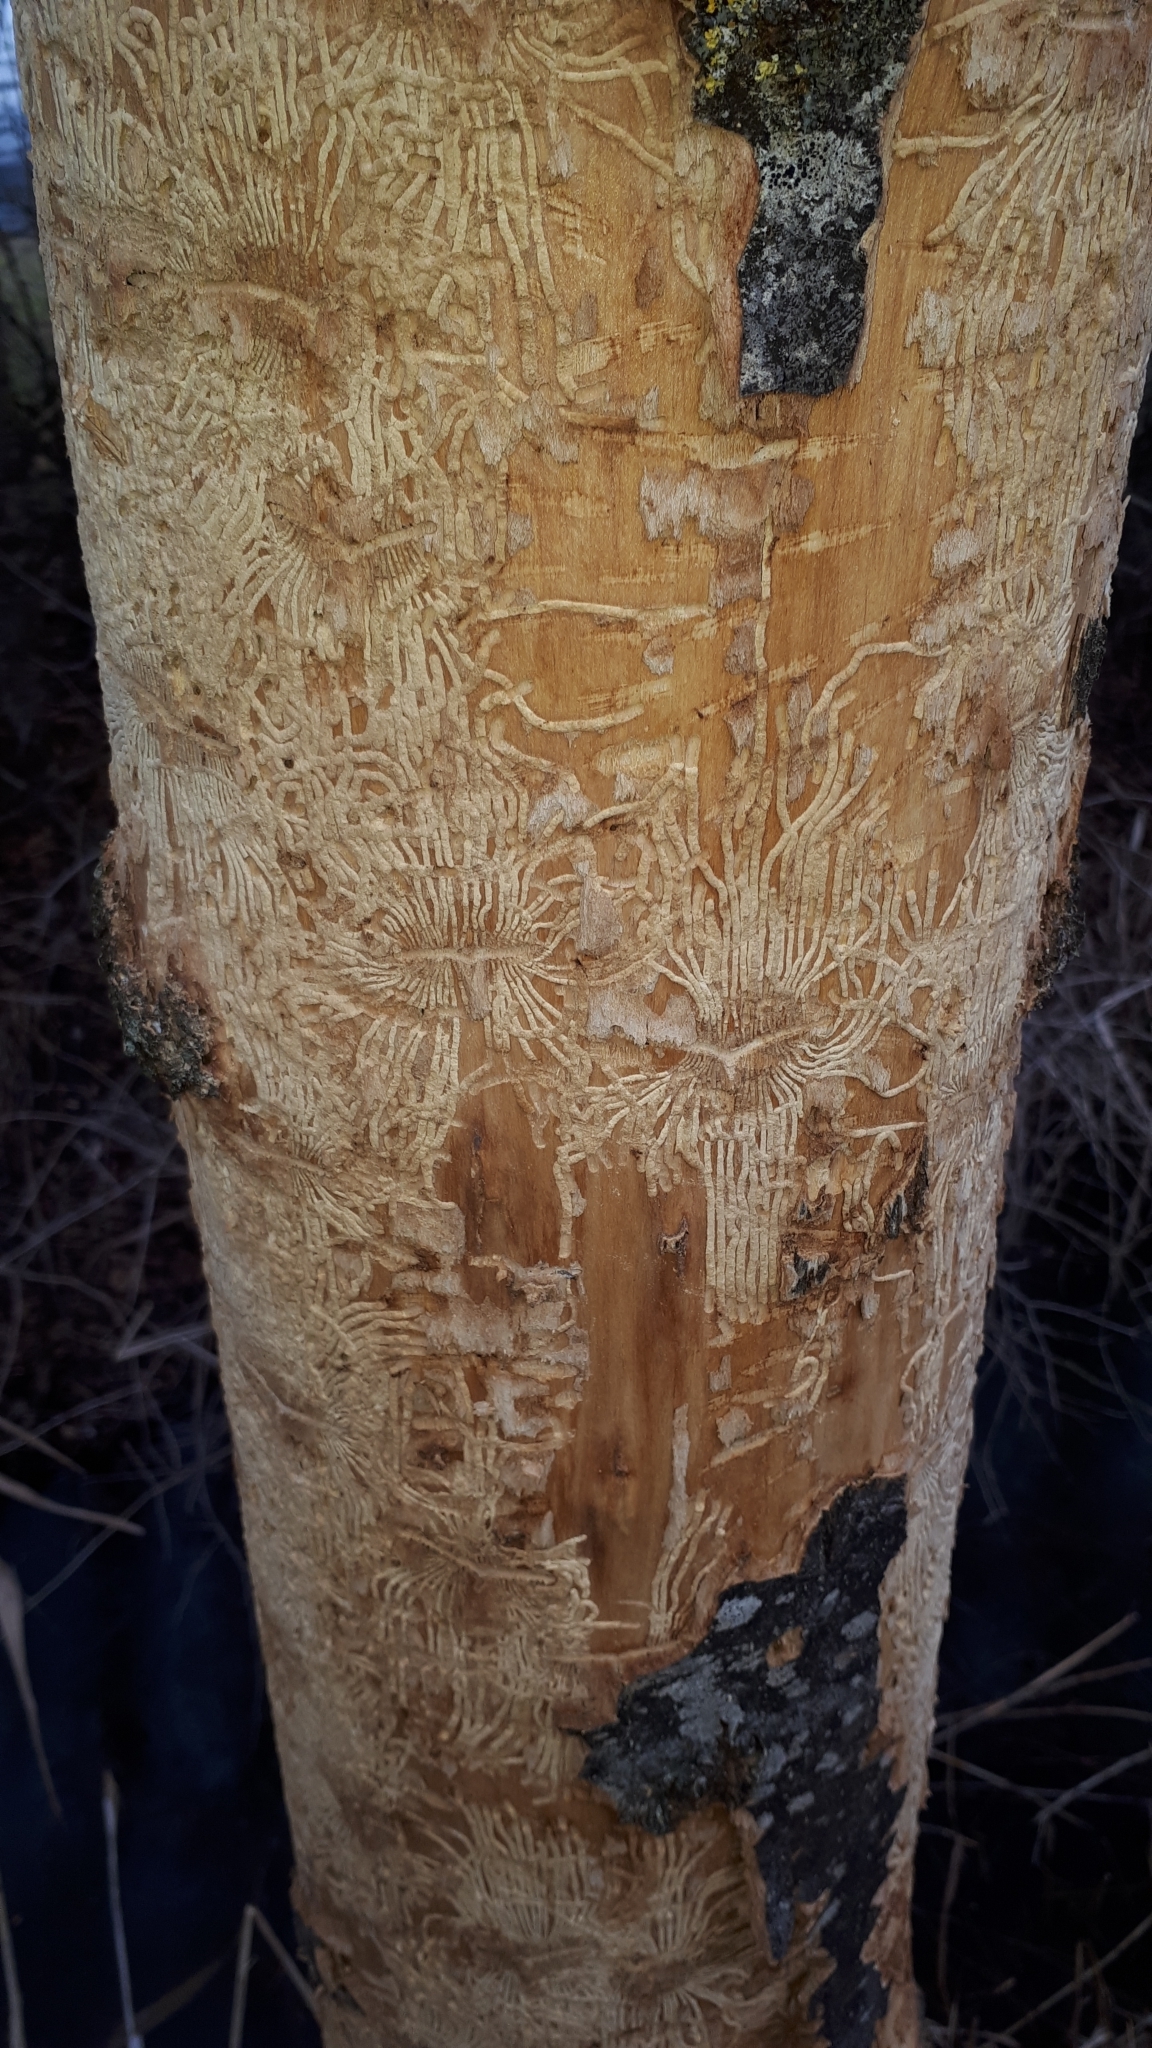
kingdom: Animalia
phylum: Arthropoda
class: Insecta
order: Coleoptera
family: Curculionidae
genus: Hylesinus
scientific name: Hylesinus varius
